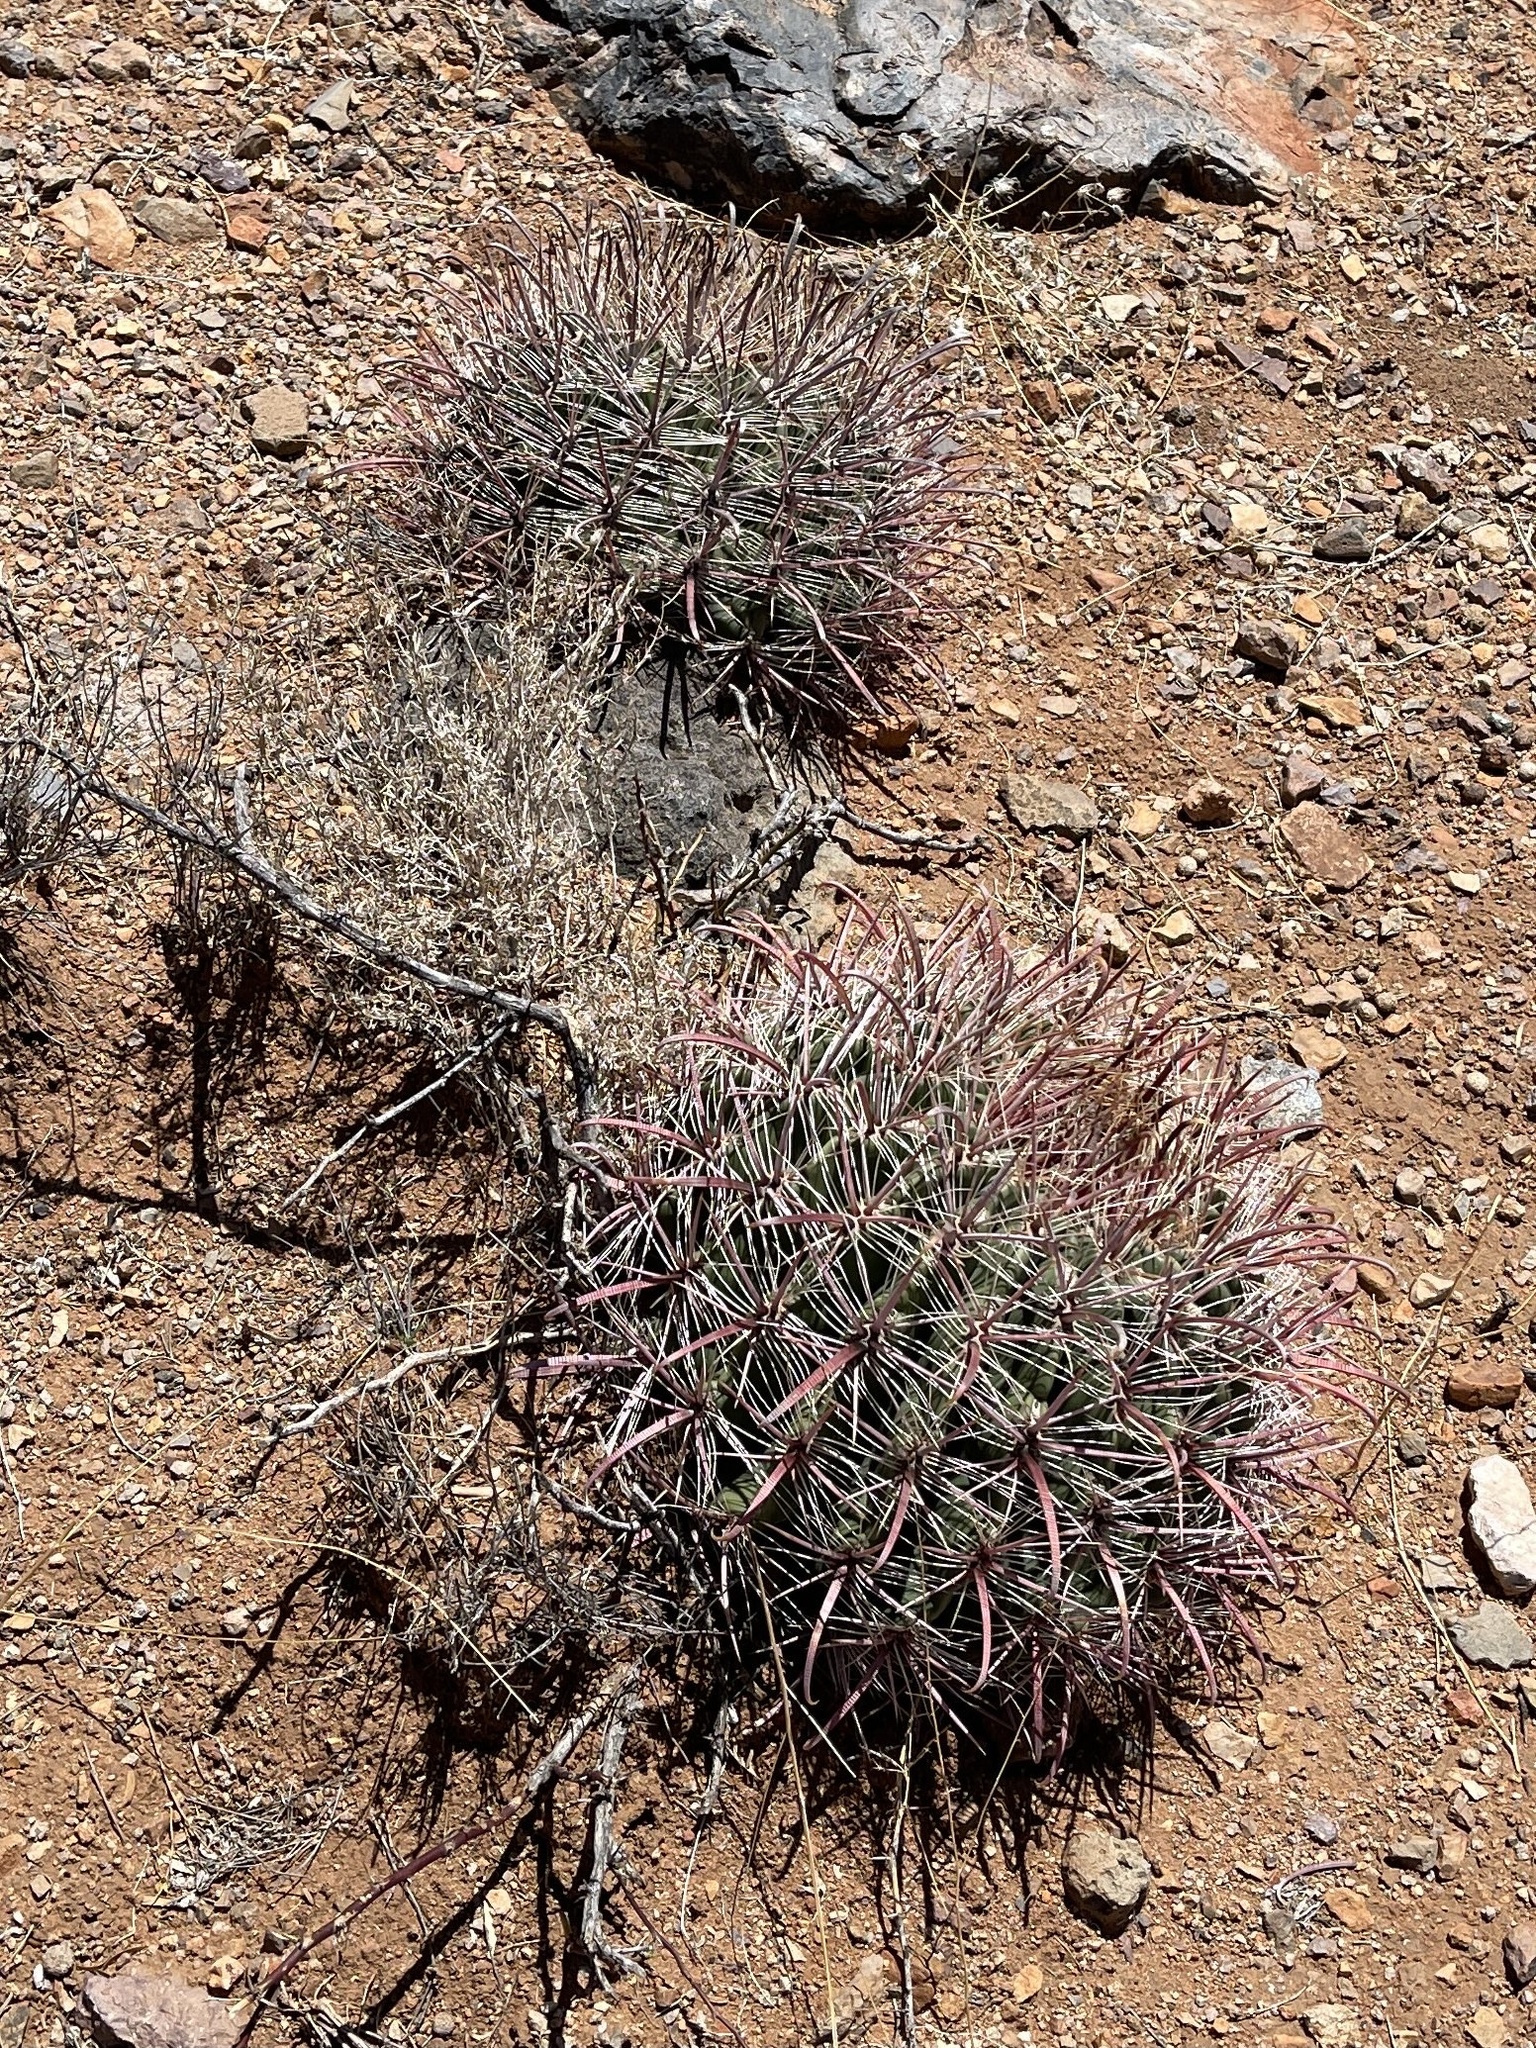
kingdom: Plantae
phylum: Tracheophyta
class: Magnoliopsida
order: Caryophyllales
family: Cactaceae
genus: Ferocactus
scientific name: Ferocactus wislizeni
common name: Candy barrel cactus
